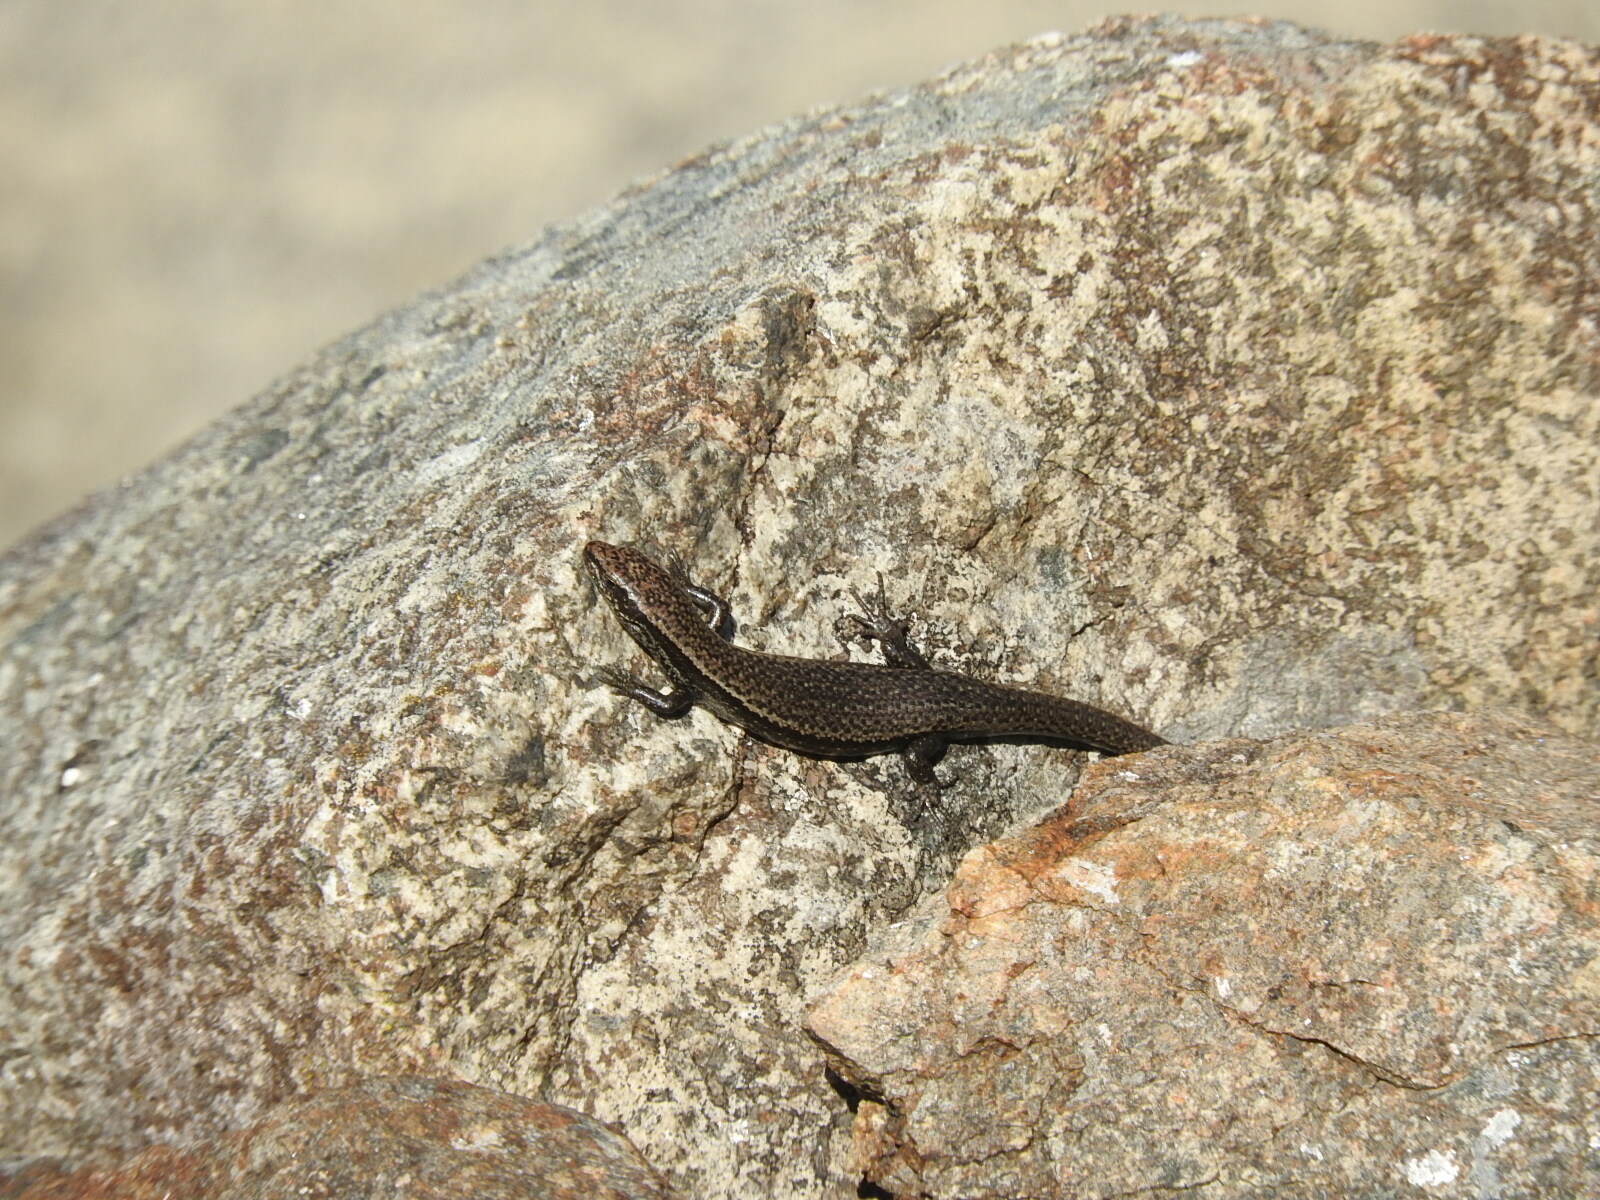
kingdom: Animalia
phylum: Chordata
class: Squamata
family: Scincidae
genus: Carinascincus
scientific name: Carinascincus metallicus
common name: Metallic cool-skink
